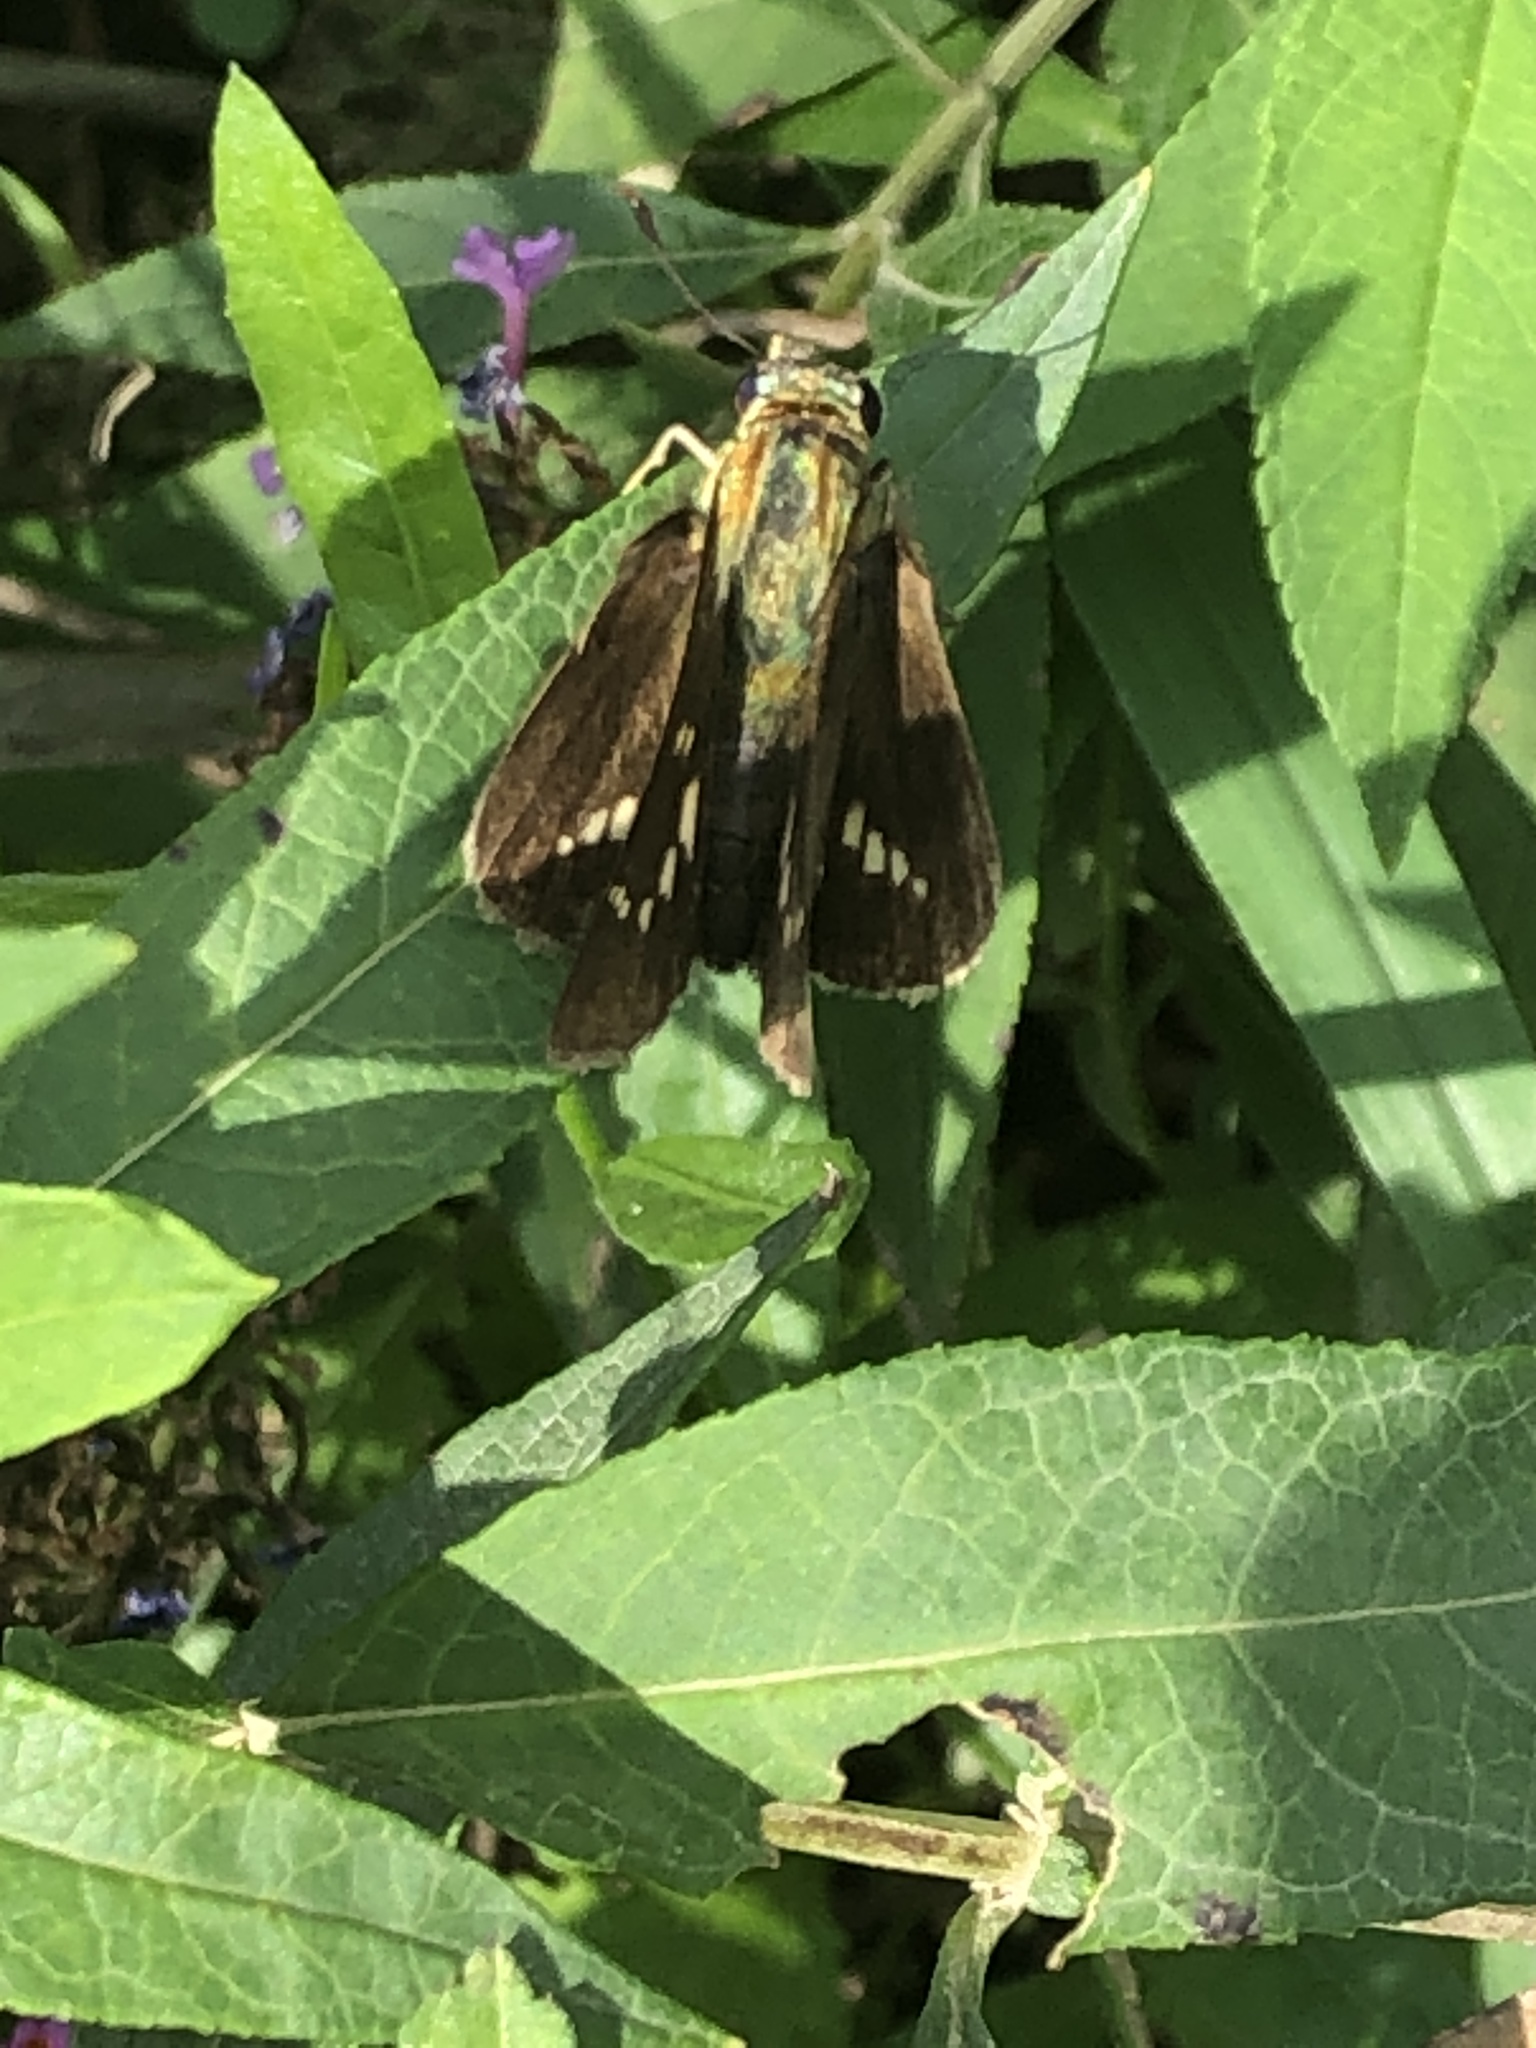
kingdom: Animalia
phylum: Arthropoda
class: Insecta
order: Lepidoptera
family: Hesperiidae
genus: Parnara
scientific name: Parnara guttatus
